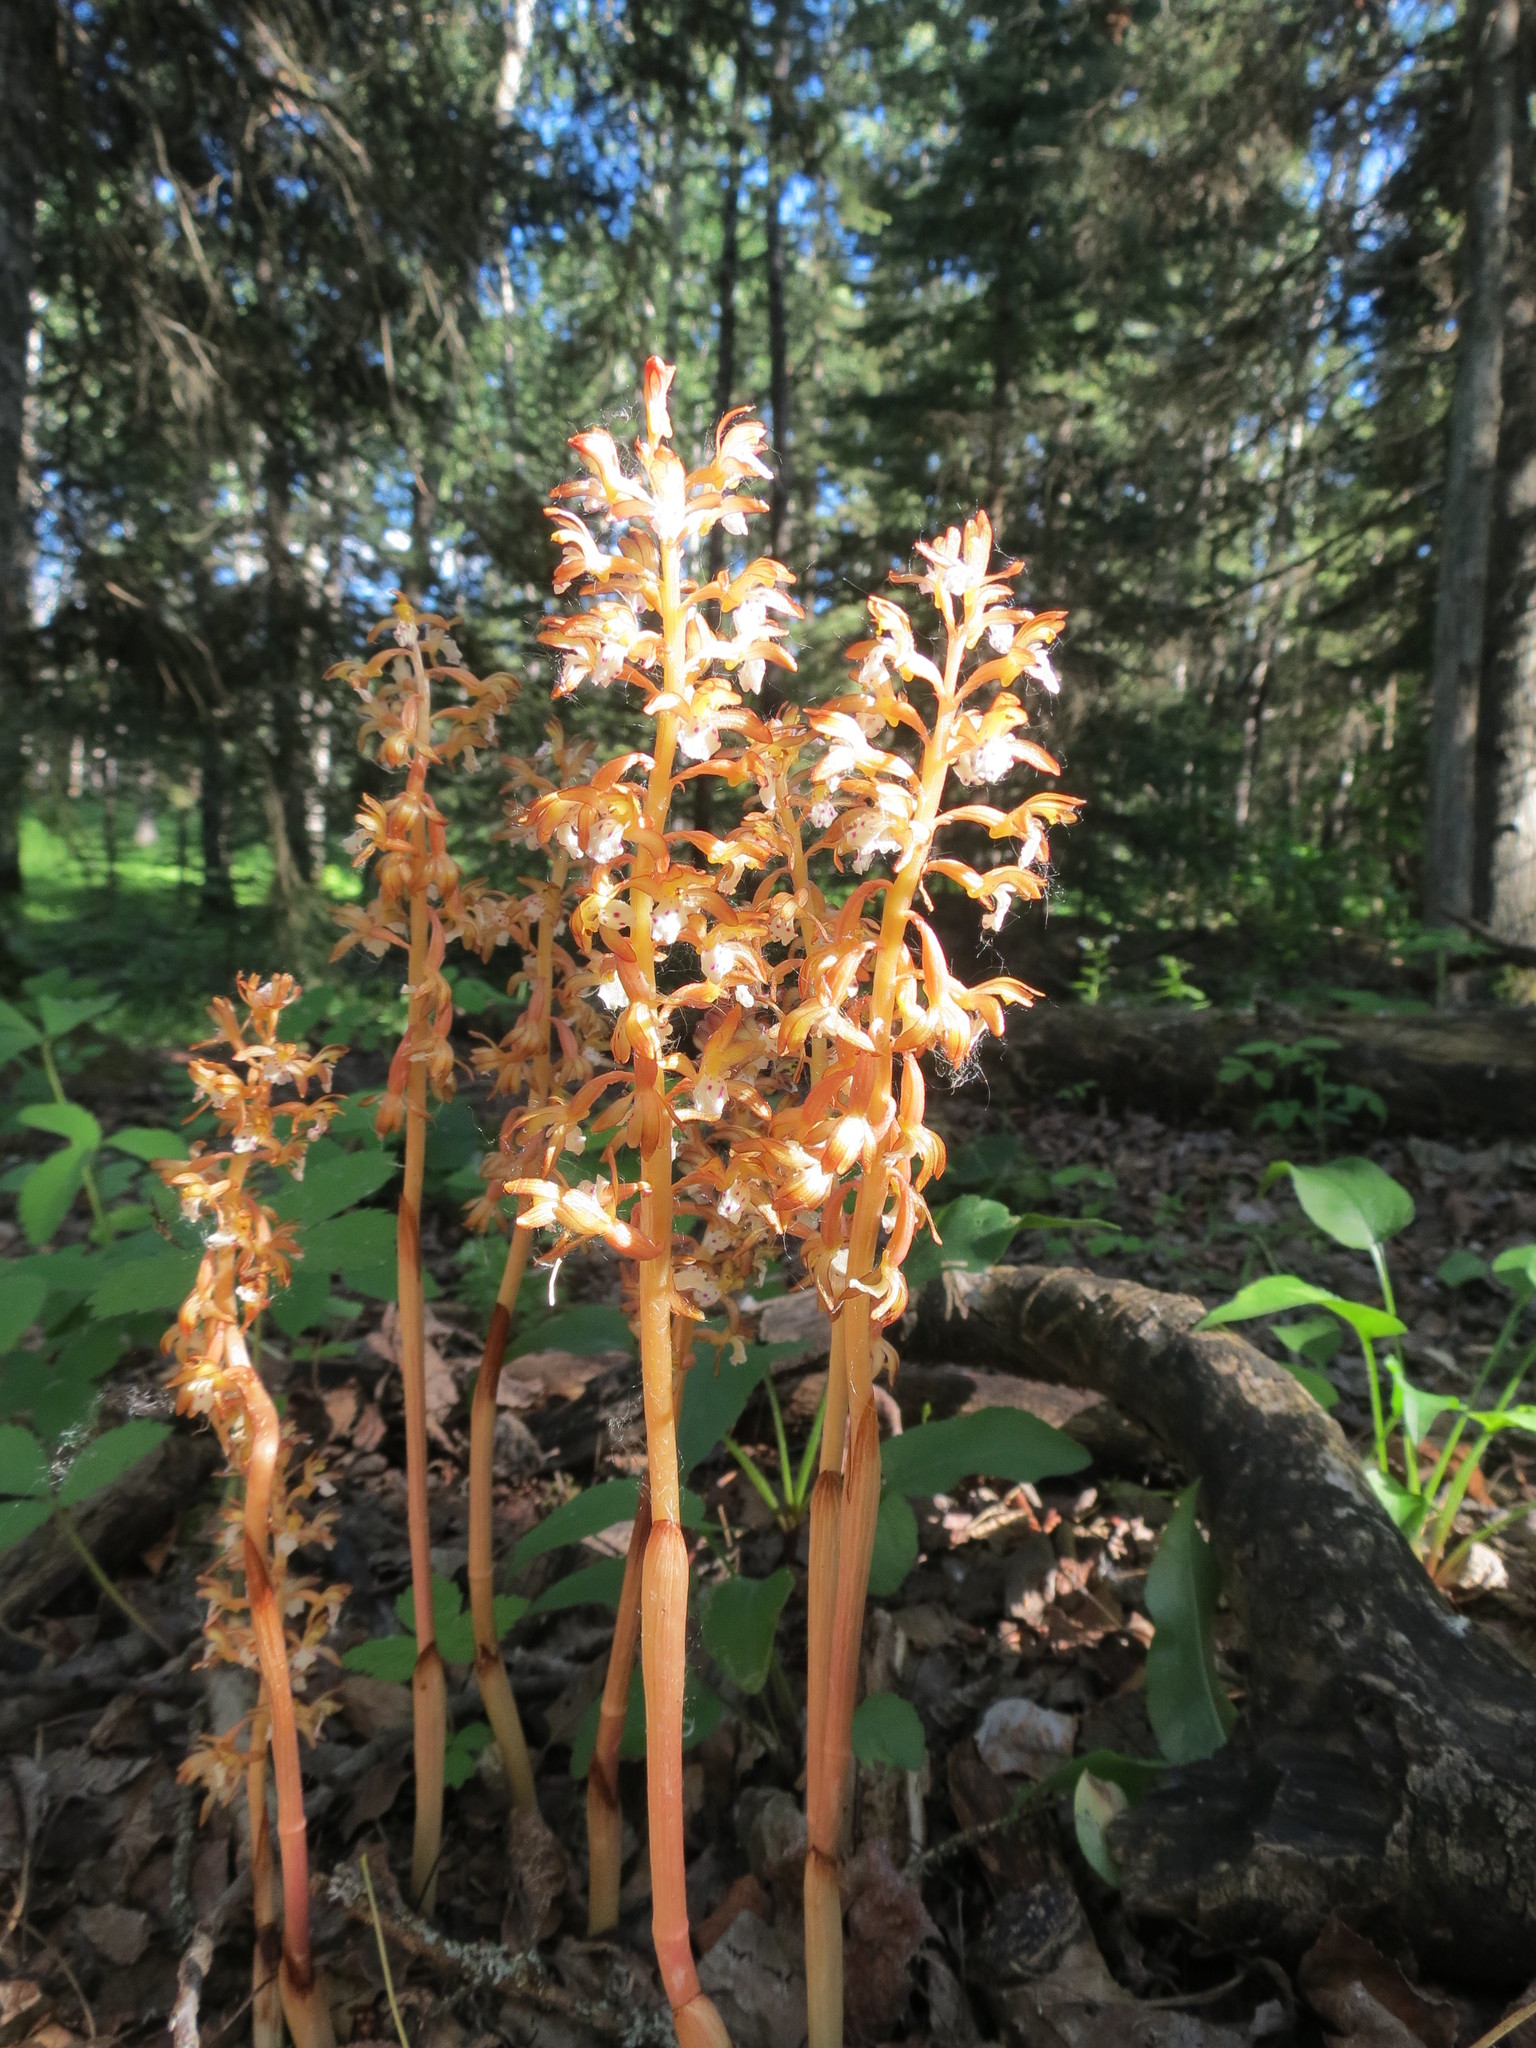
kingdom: Plantae
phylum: Tracheophyta
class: Liliopsida
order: Asparagales
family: Orchidaceae
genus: Corallorhiza
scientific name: Corallorhiza maculata
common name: Spotted coralroot
